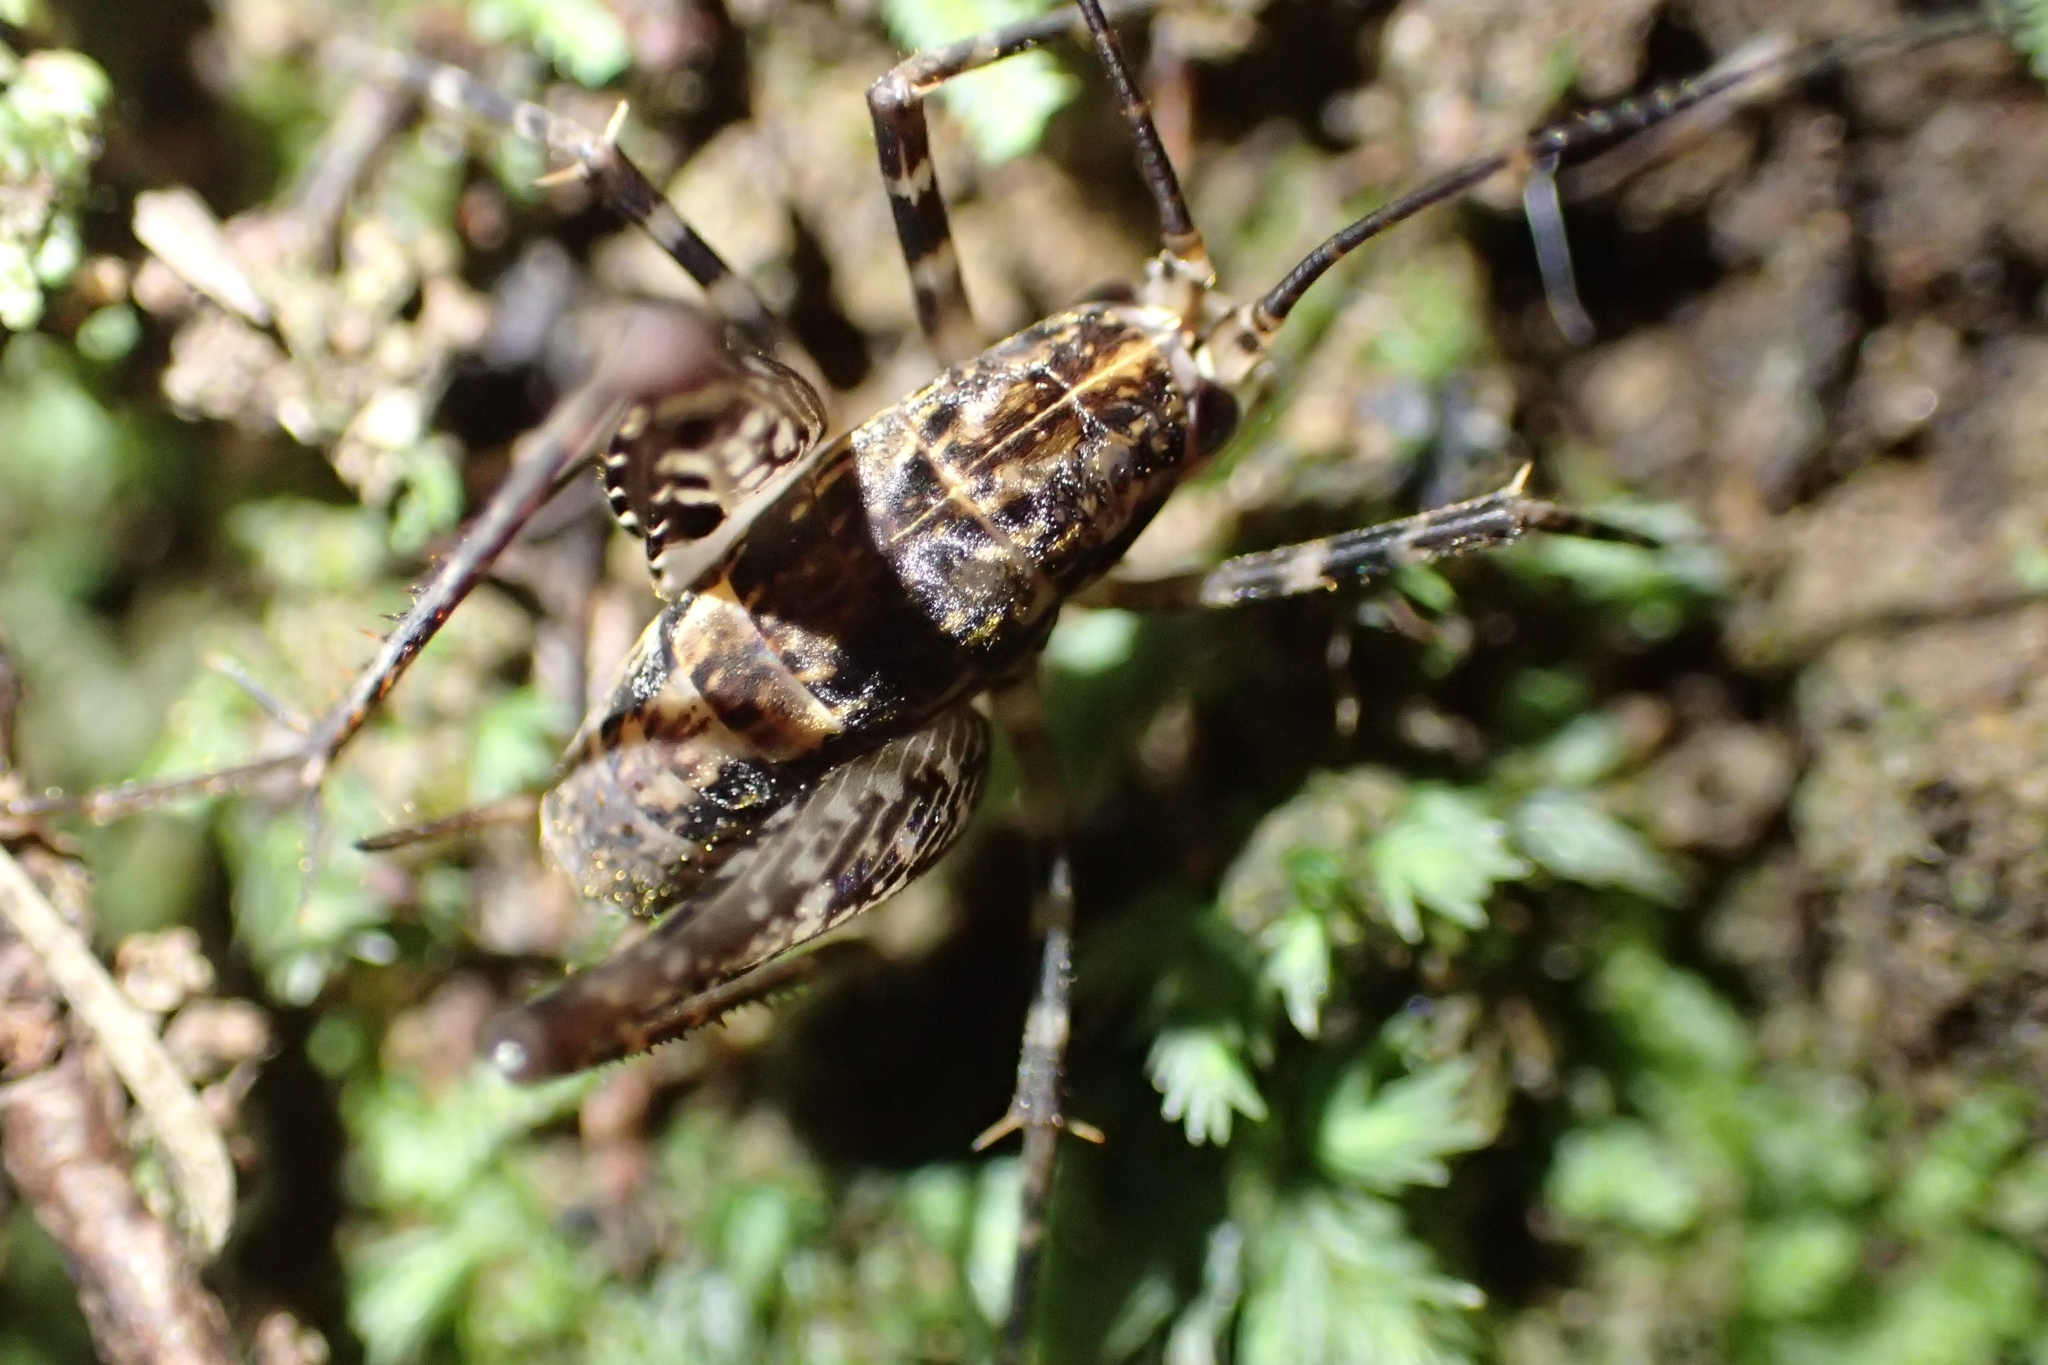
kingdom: Animalia
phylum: Arthropoda
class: Insecta
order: Orthoptera
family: Rhaphidophoridae
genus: Pleioplectron
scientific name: Pleioplectron hudsoni
